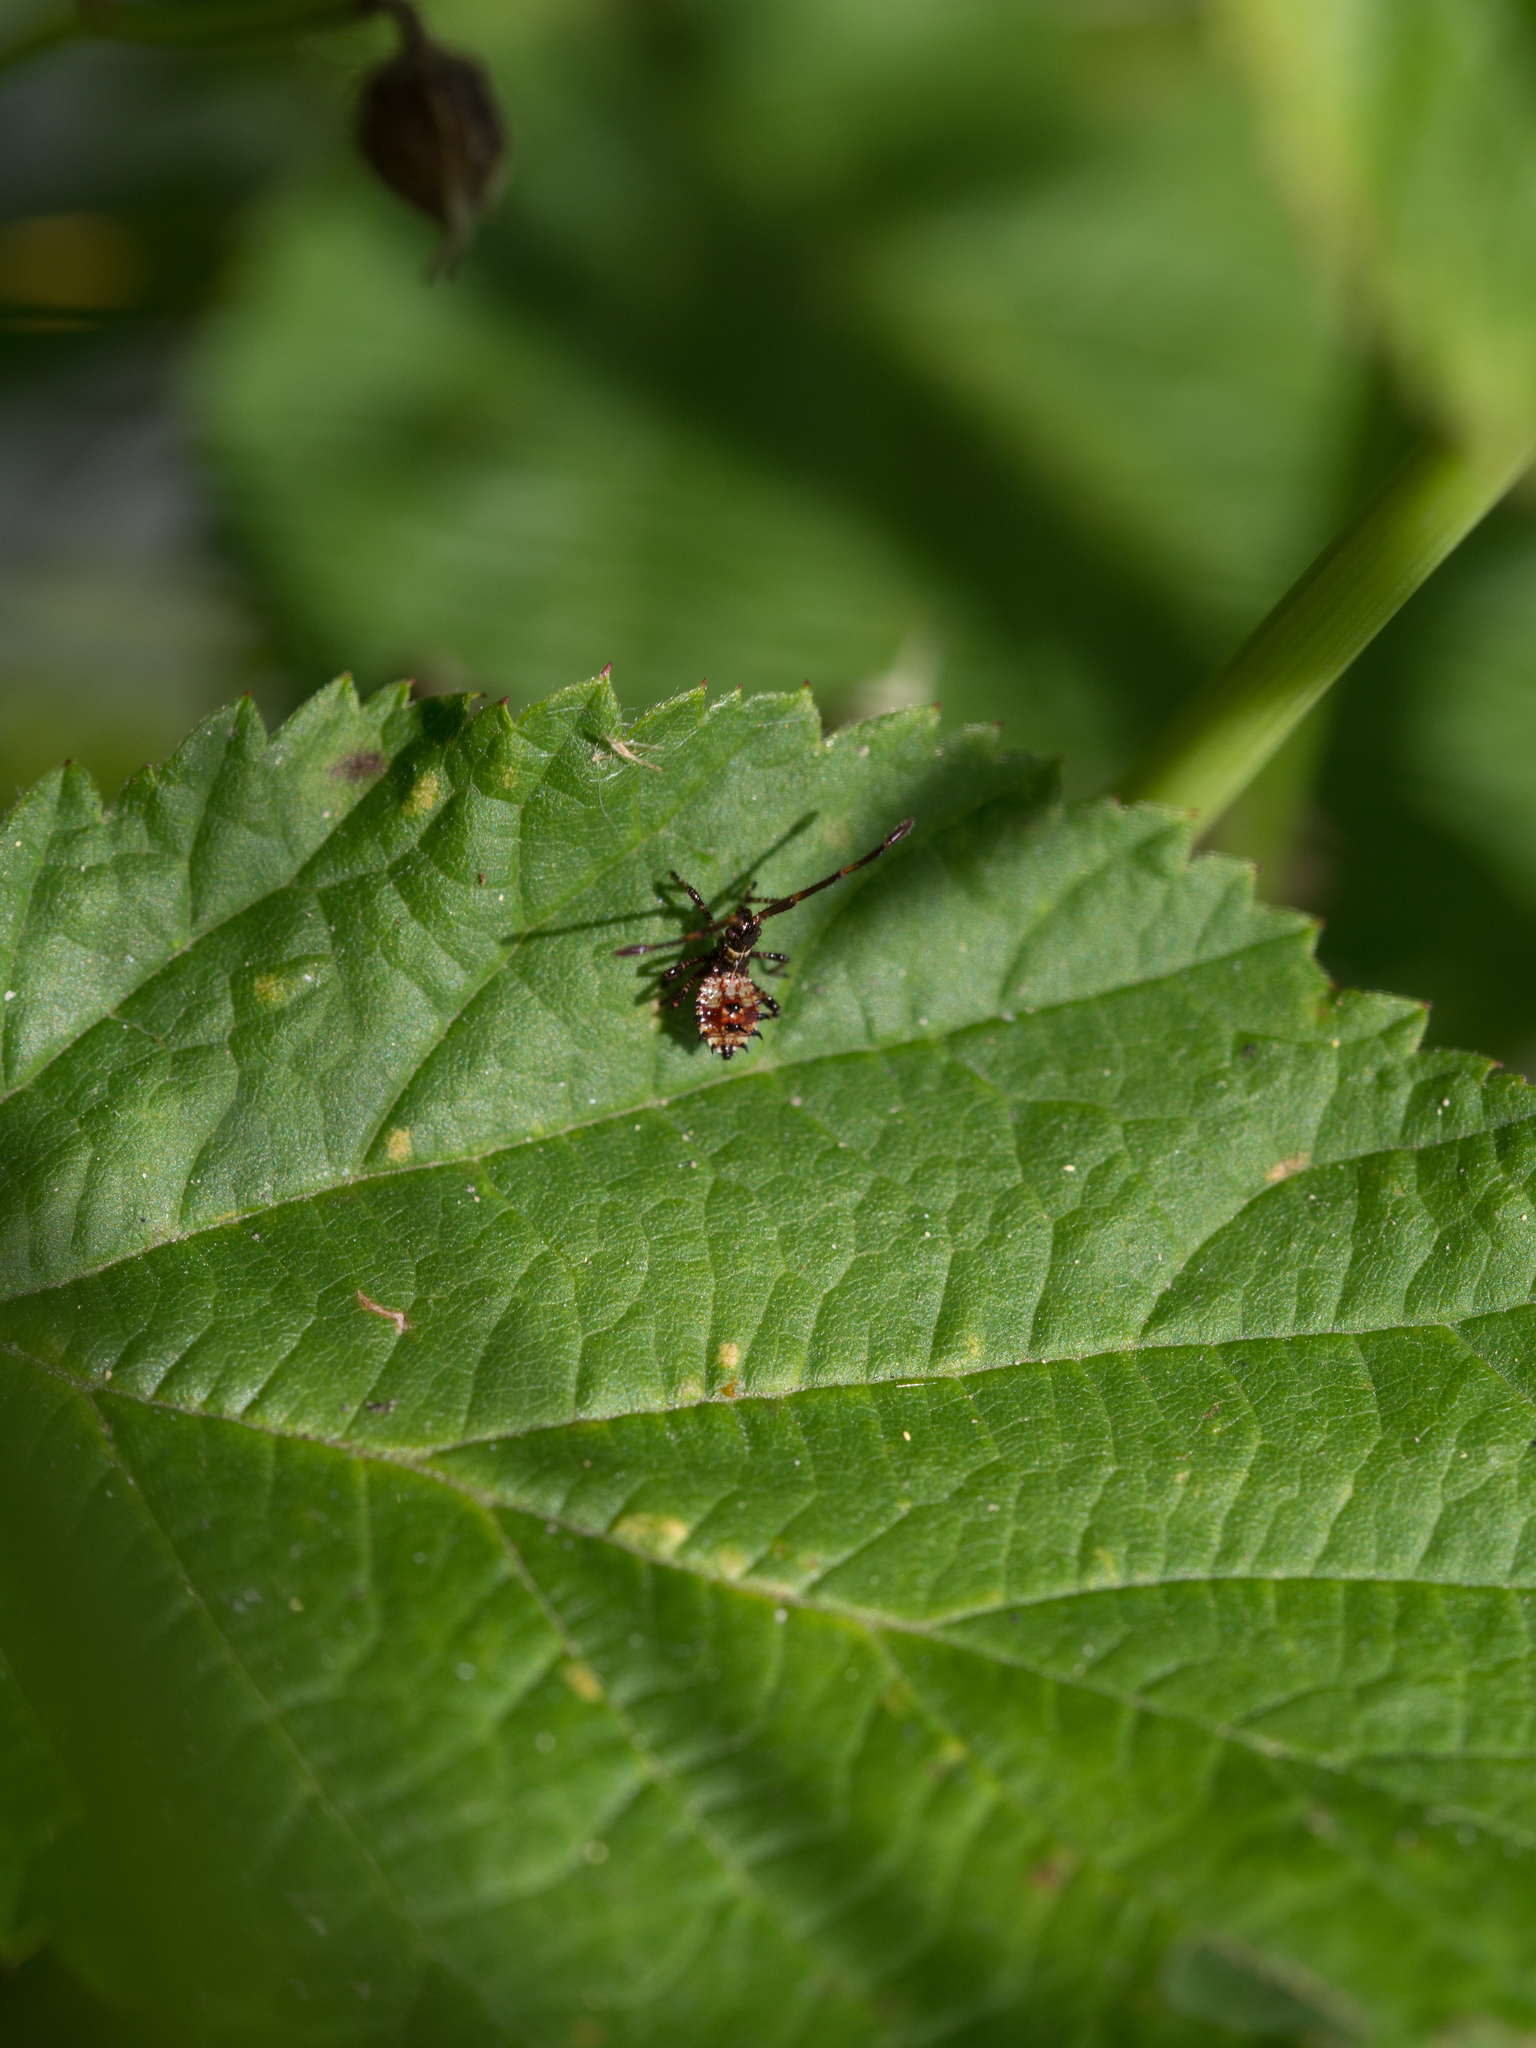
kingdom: Animalia
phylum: Arthropoda
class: Insecta
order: Hemiptera
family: Coreidae
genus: Coreus
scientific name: Coreus marginatus
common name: Dock bug
